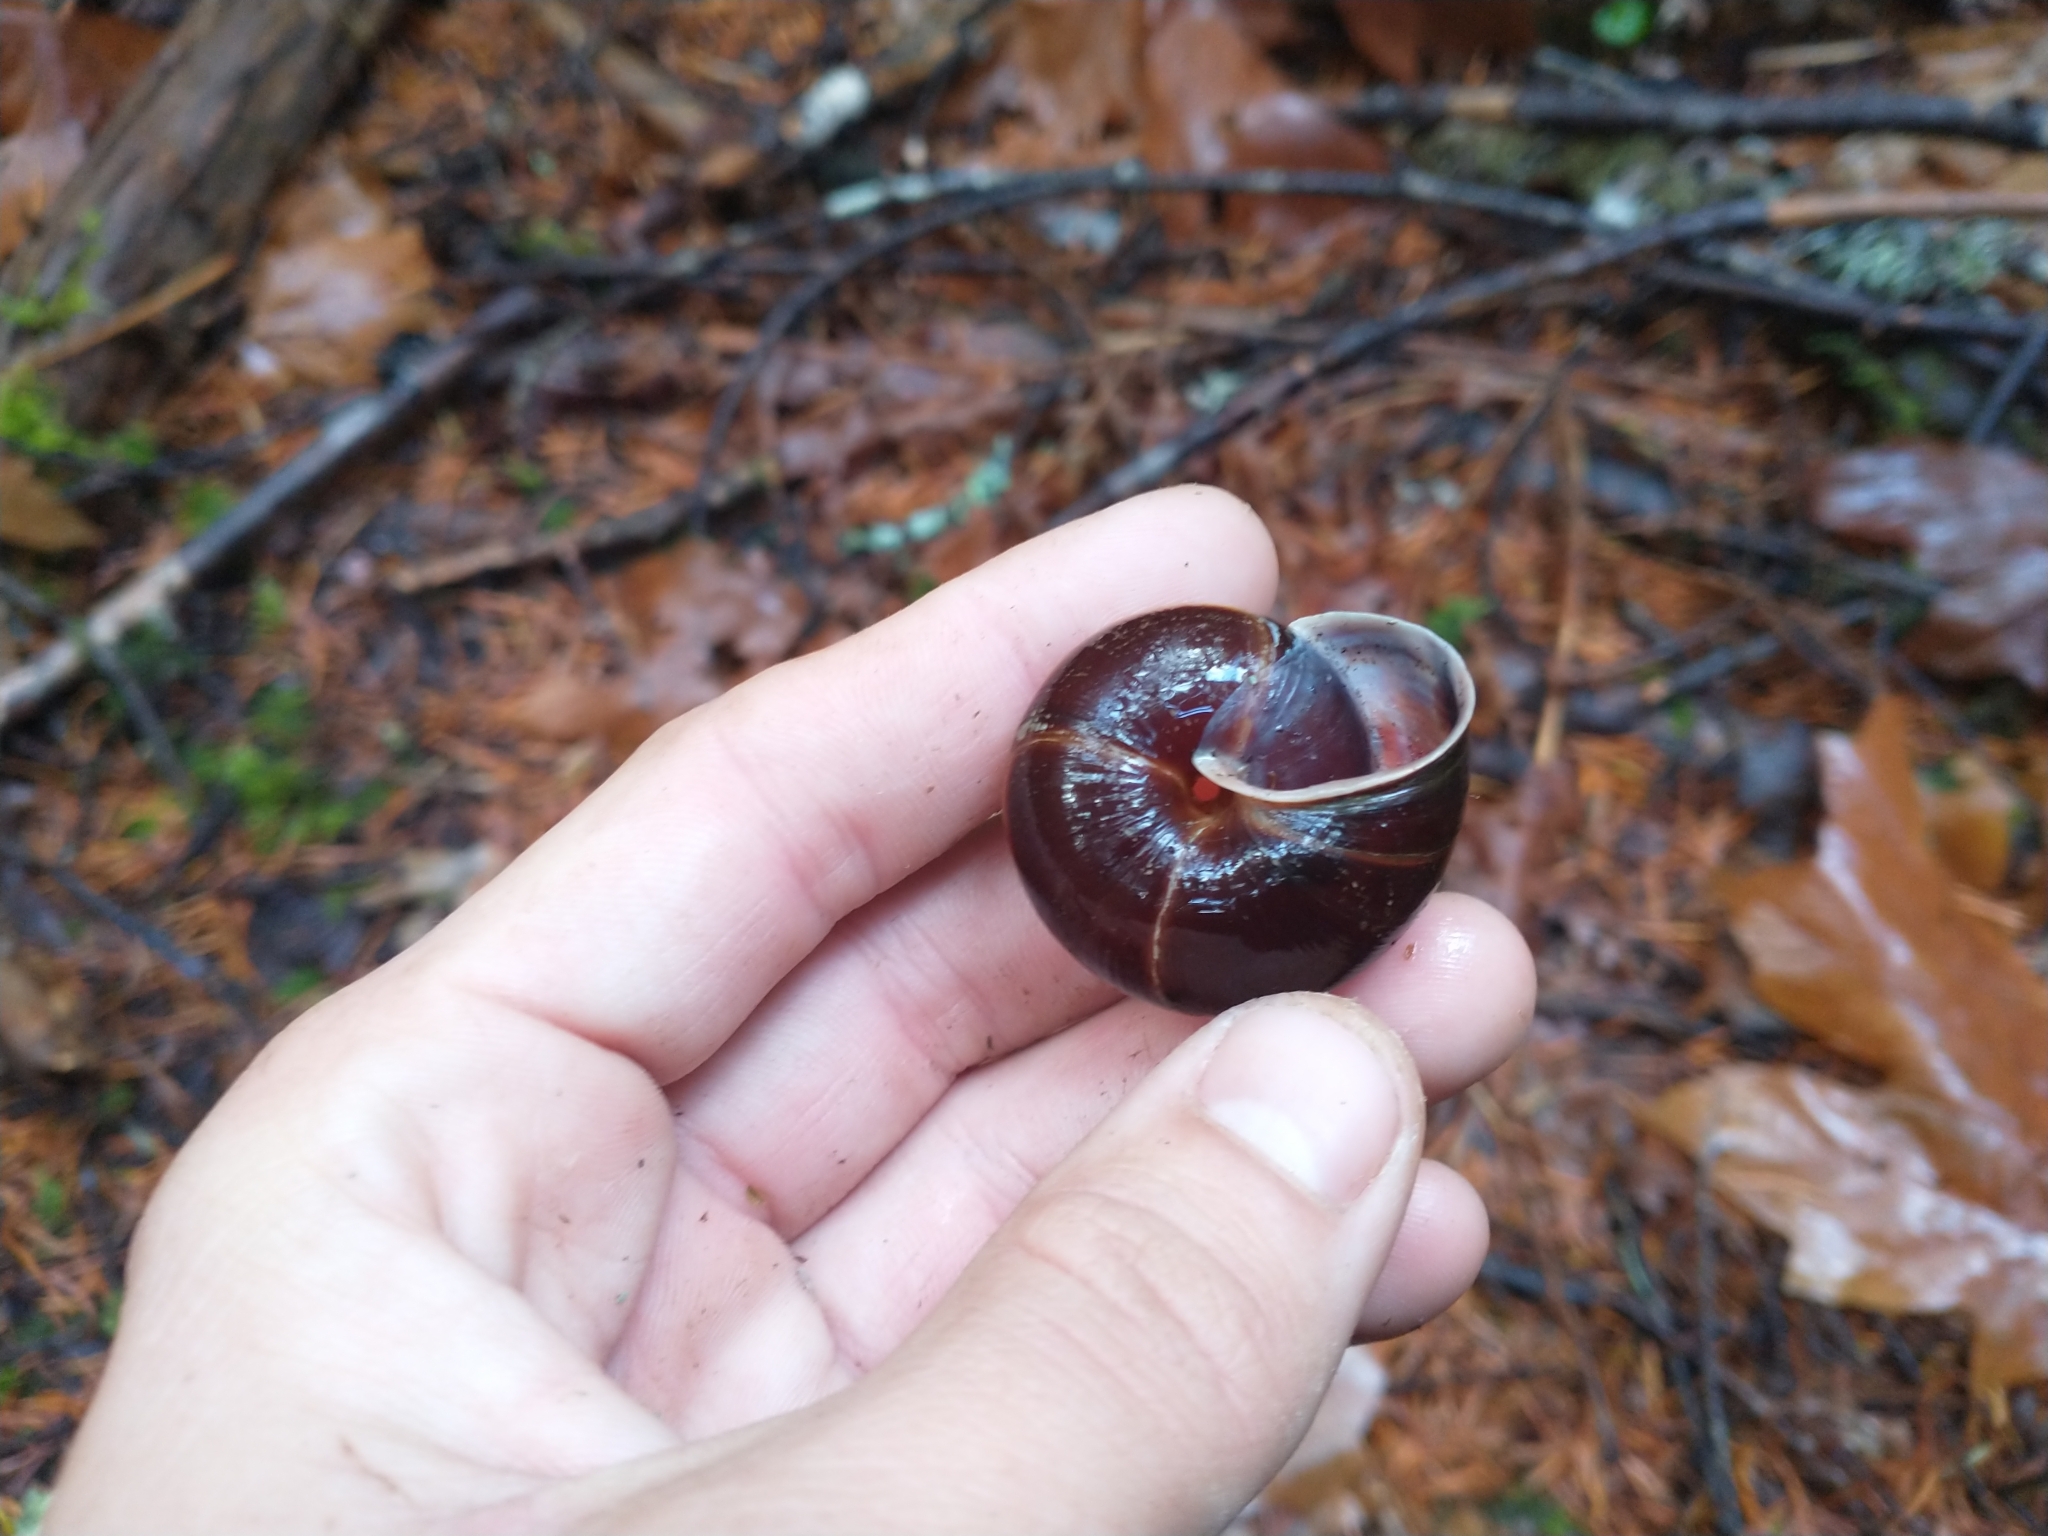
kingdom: Animalia
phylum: Mollusca
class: Gastropoda
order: Stylommatophora
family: Xanthonychidae
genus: Monadenia
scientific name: Monadenia fidelis
